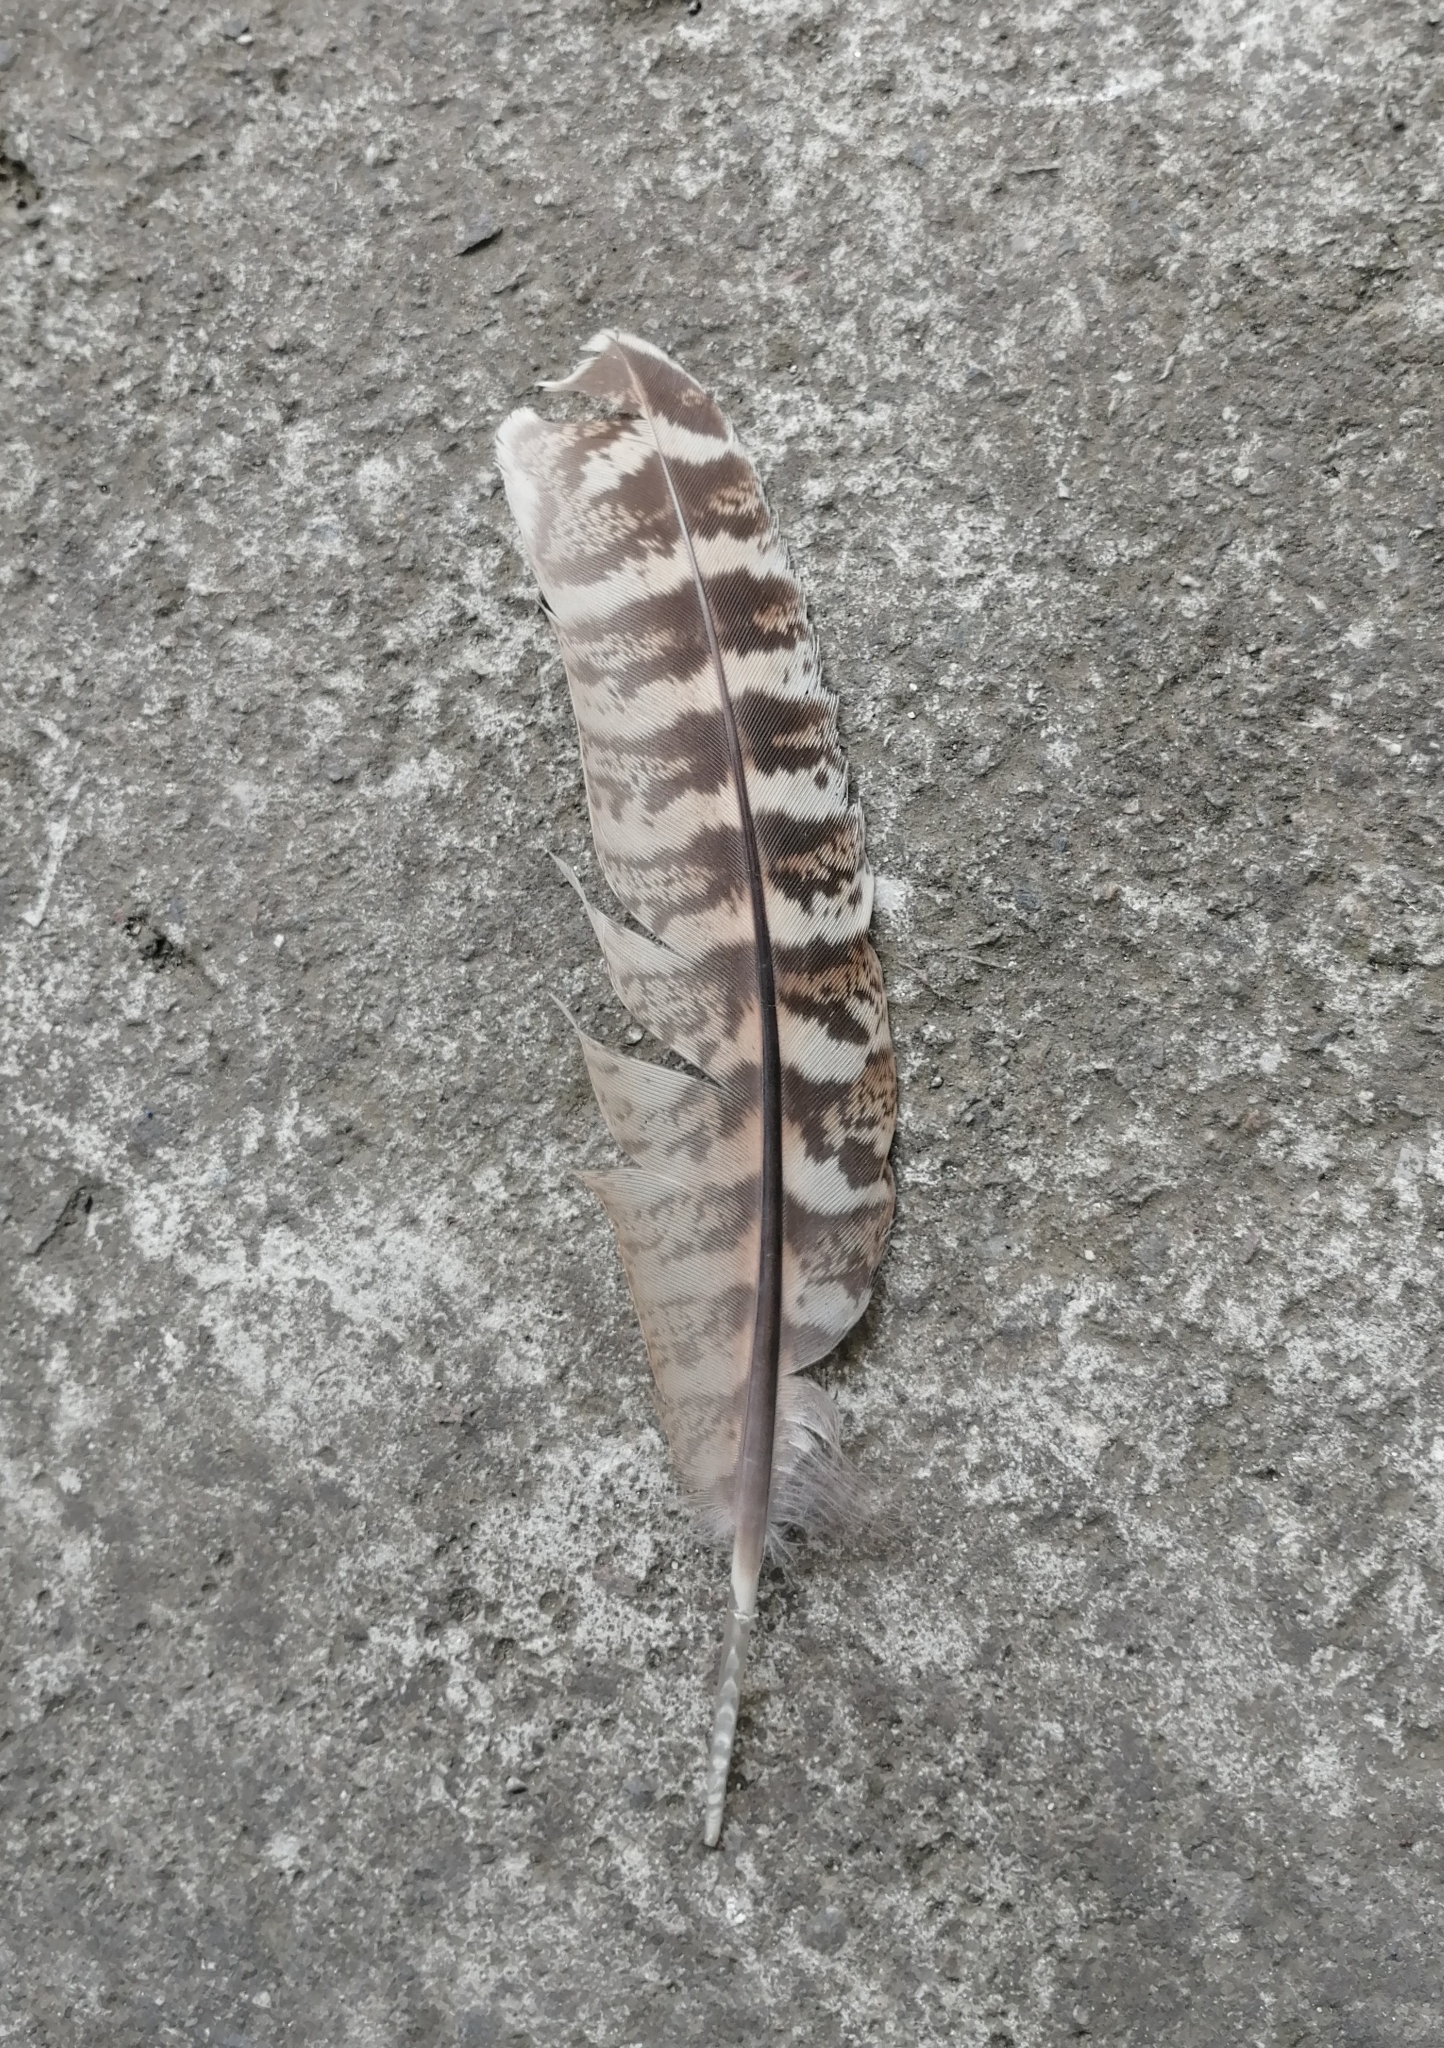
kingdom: Animalia
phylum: Chordata
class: Aves
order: Galliformes
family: Phasianidae
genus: Phasianus
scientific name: Phasianus colchicus
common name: Common pheasant
